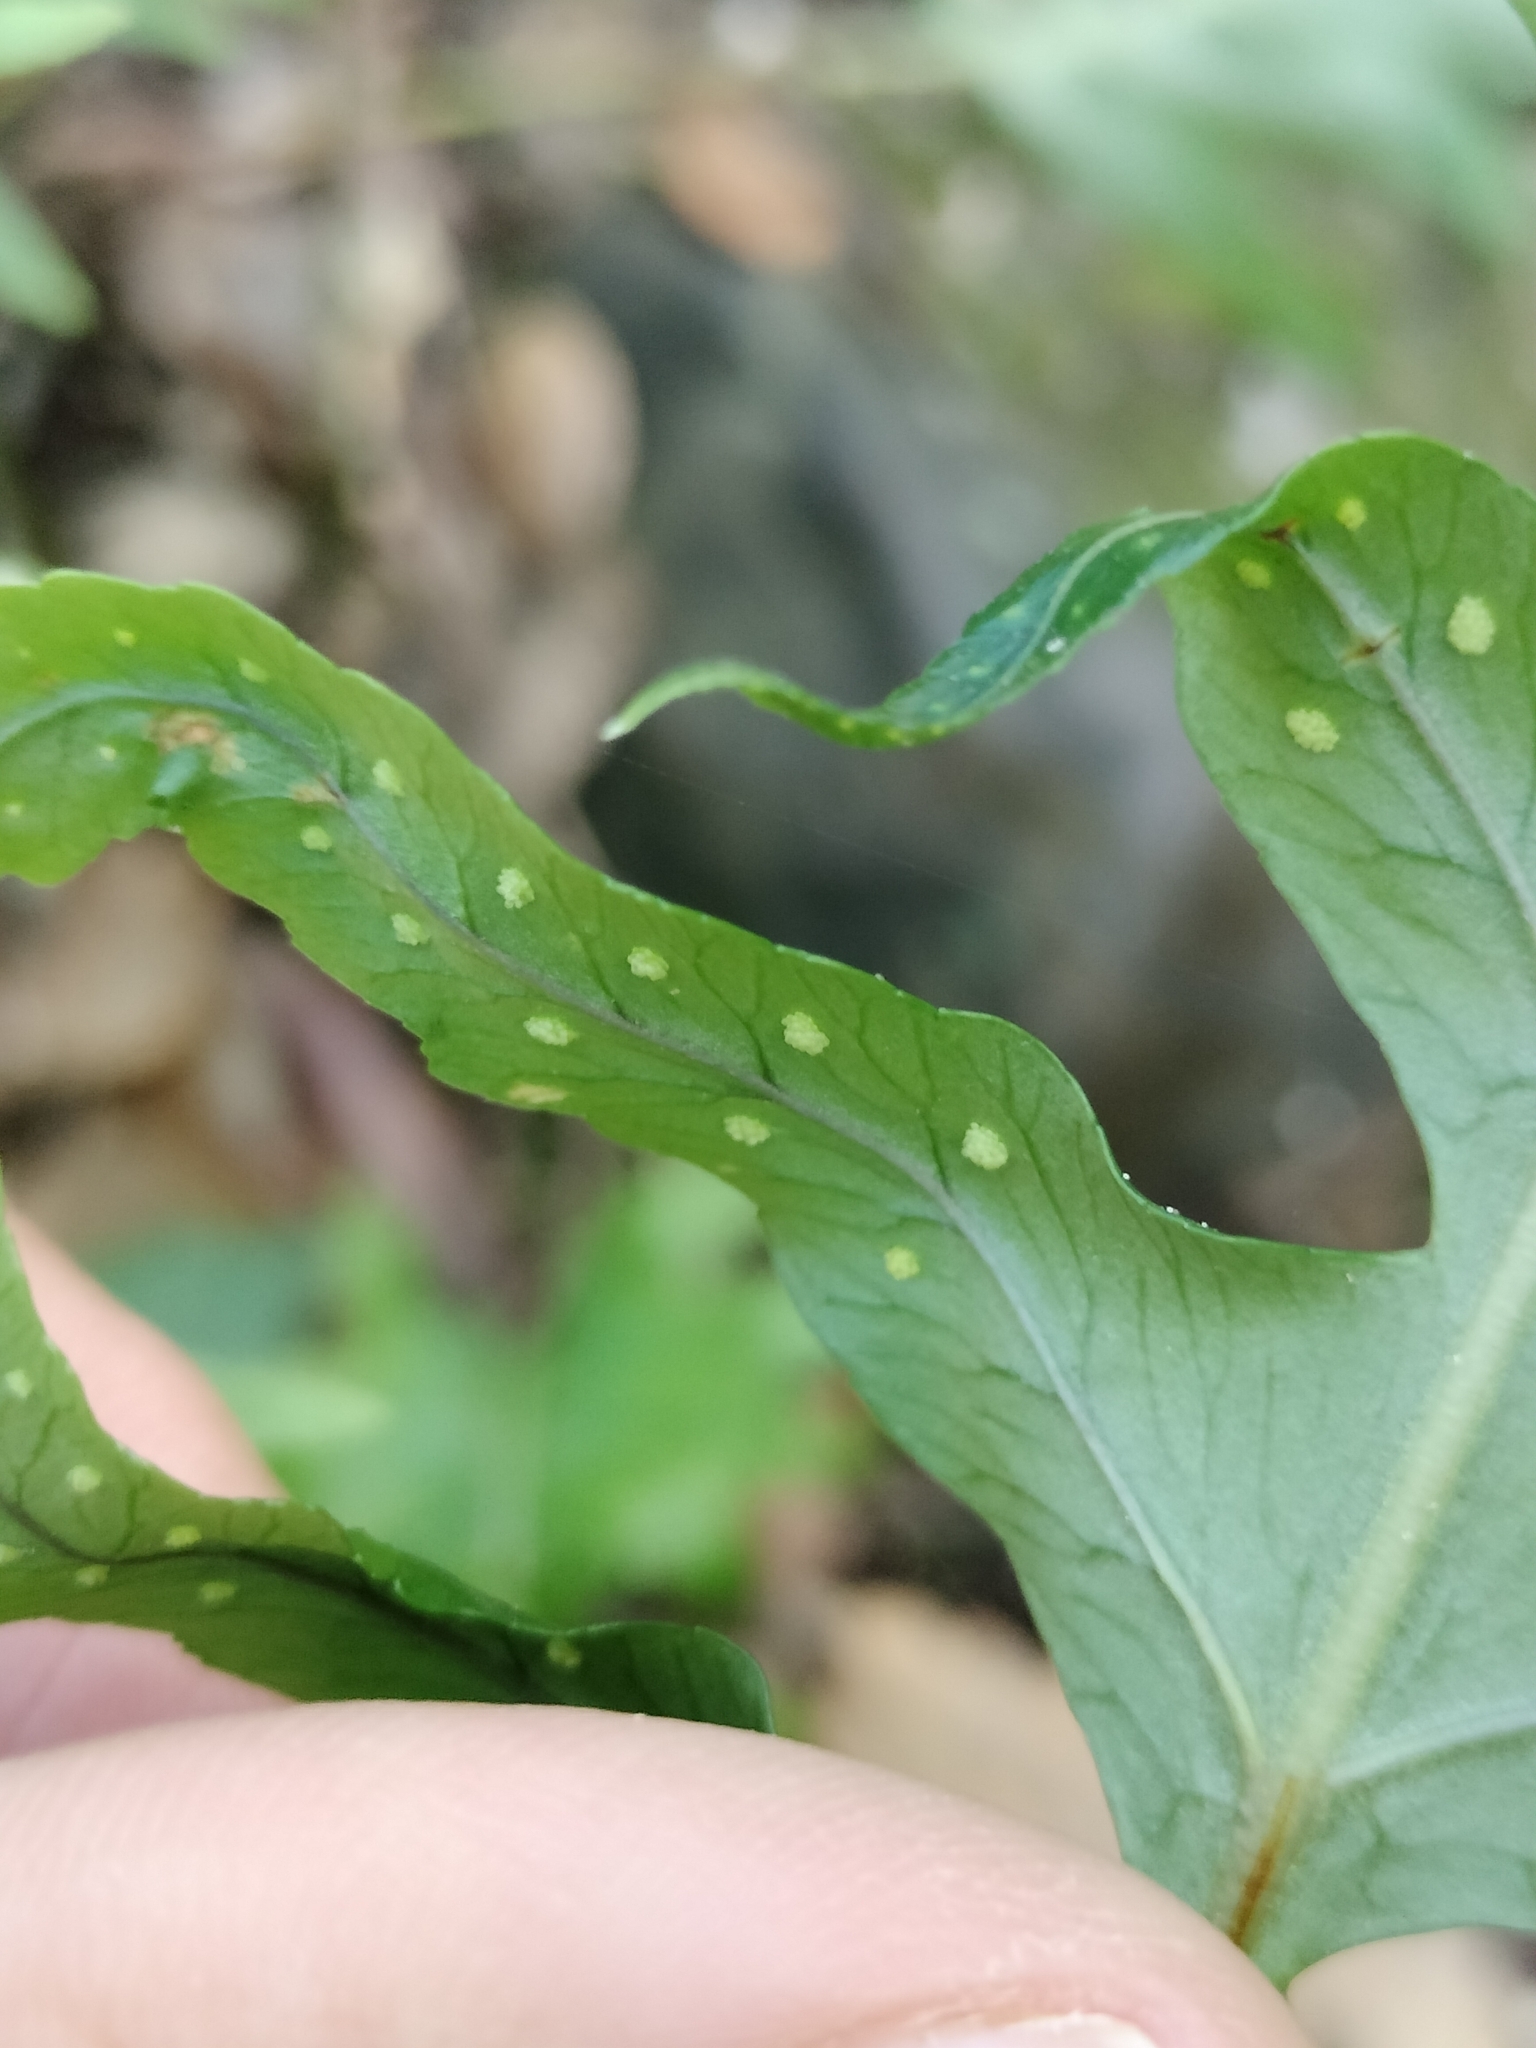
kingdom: Plantae
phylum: Tracheophyta
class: Polypodiopsida
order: Polypodiales
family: Polypodiaceae
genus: Polypodium
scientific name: Polypodium cambricum
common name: Southern polypody
